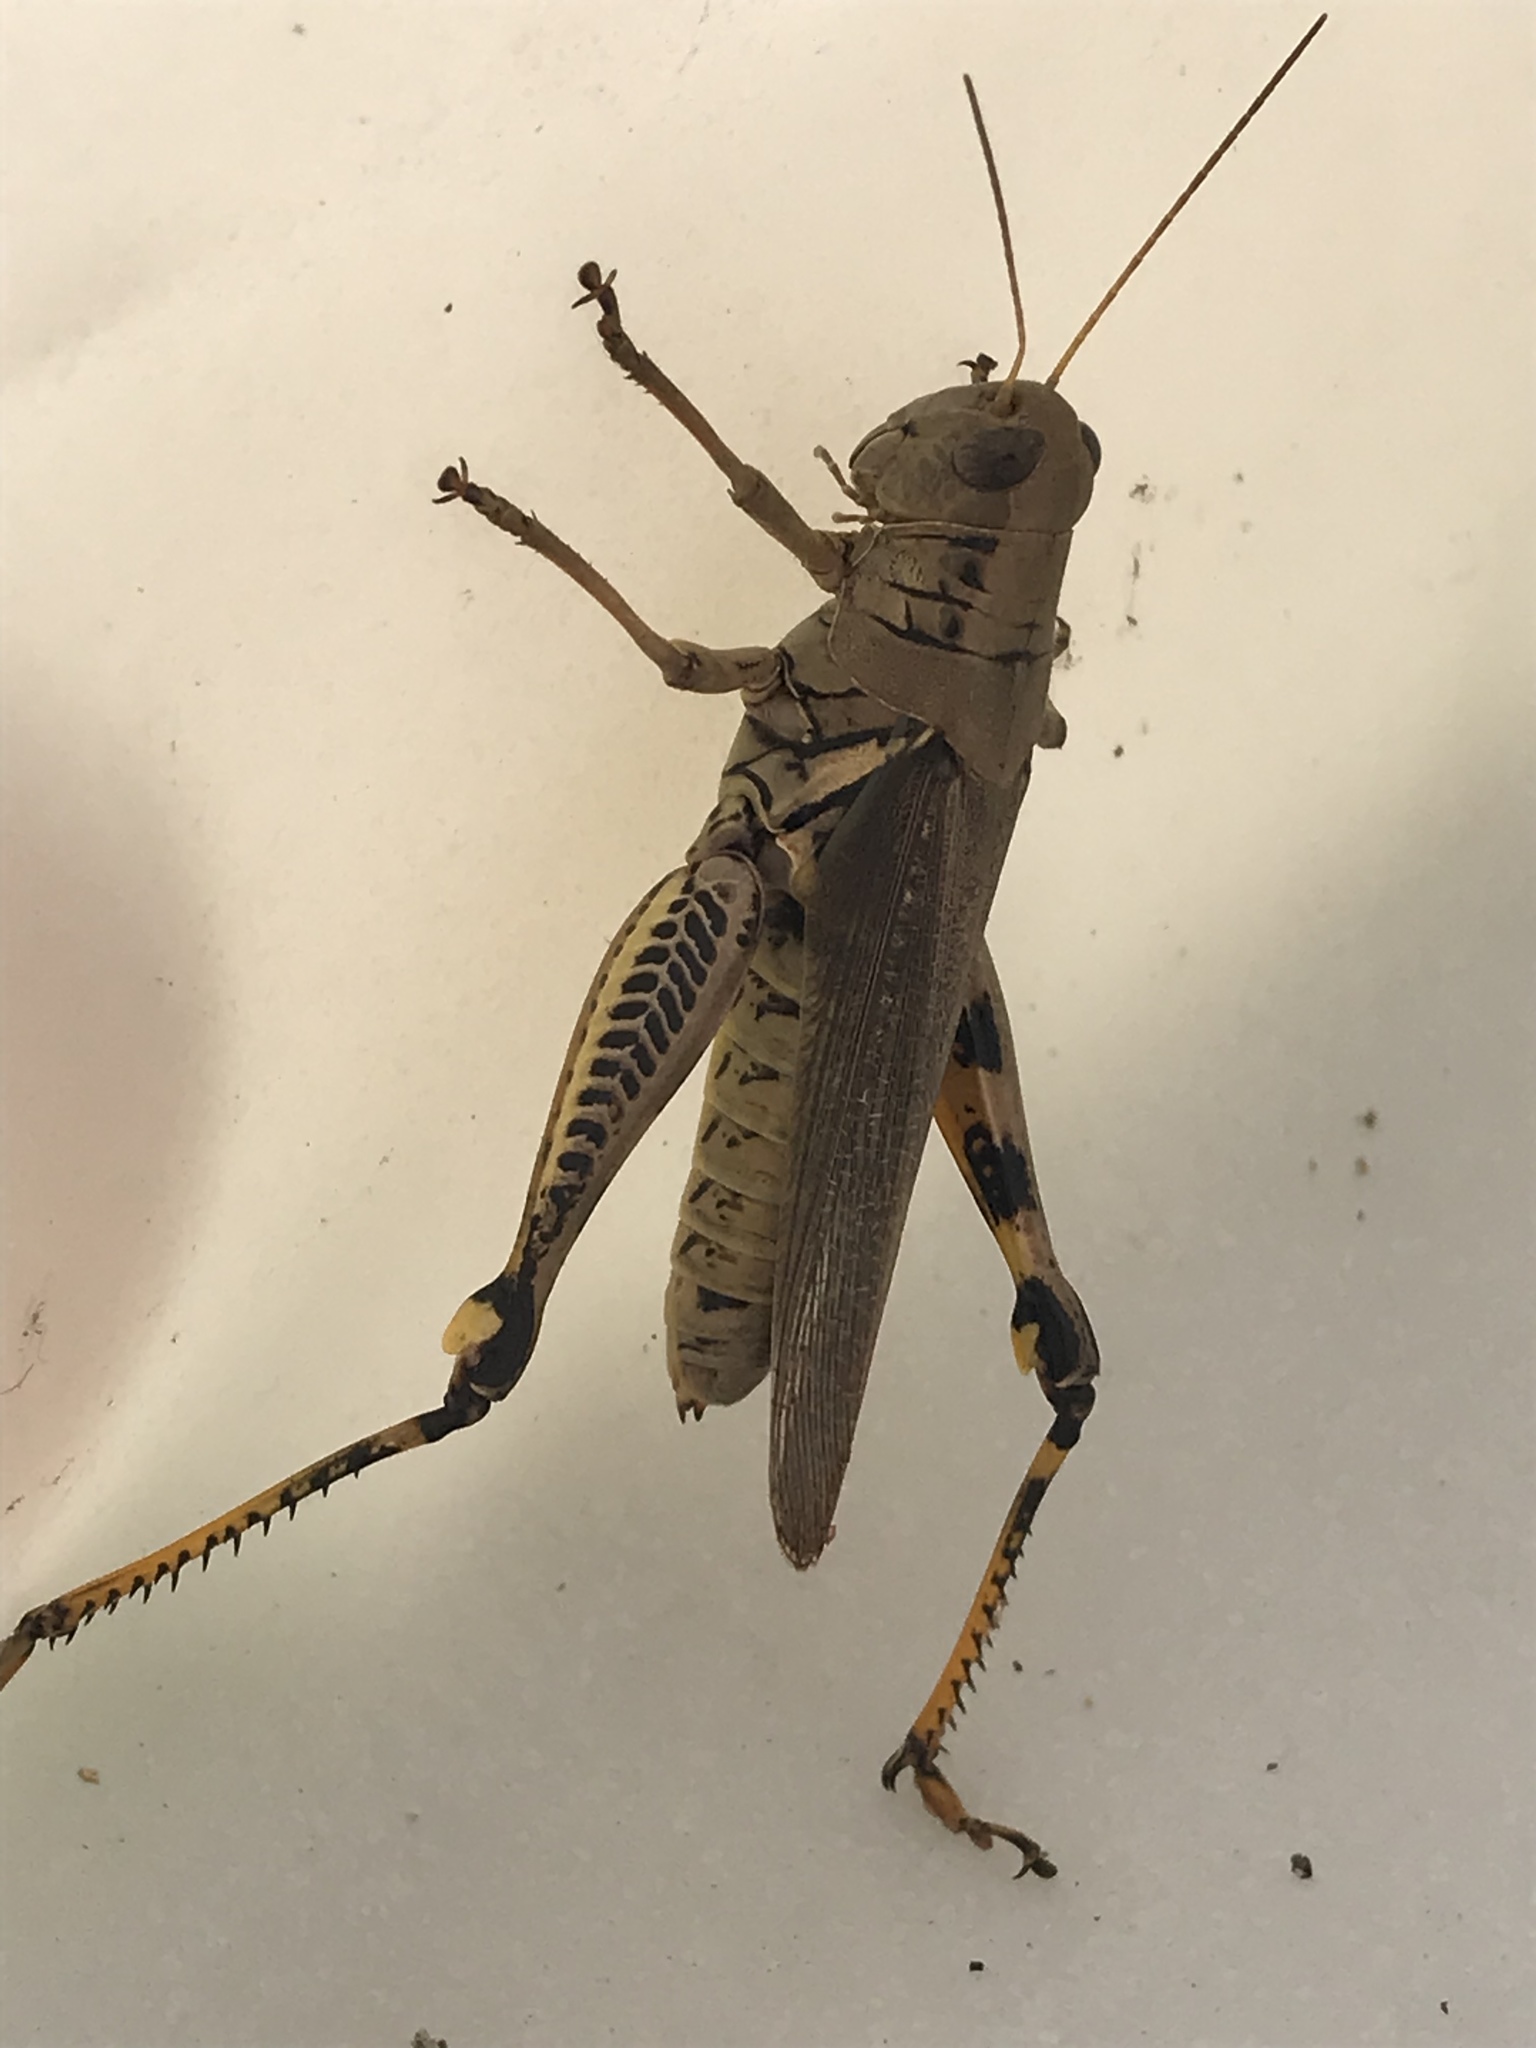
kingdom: Animalia
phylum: Arthropoda
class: Insecta
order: Orthoptera
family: Acrididae
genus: Melanoplus
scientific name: Melanoplus differentialis
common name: Differential grasshopper
